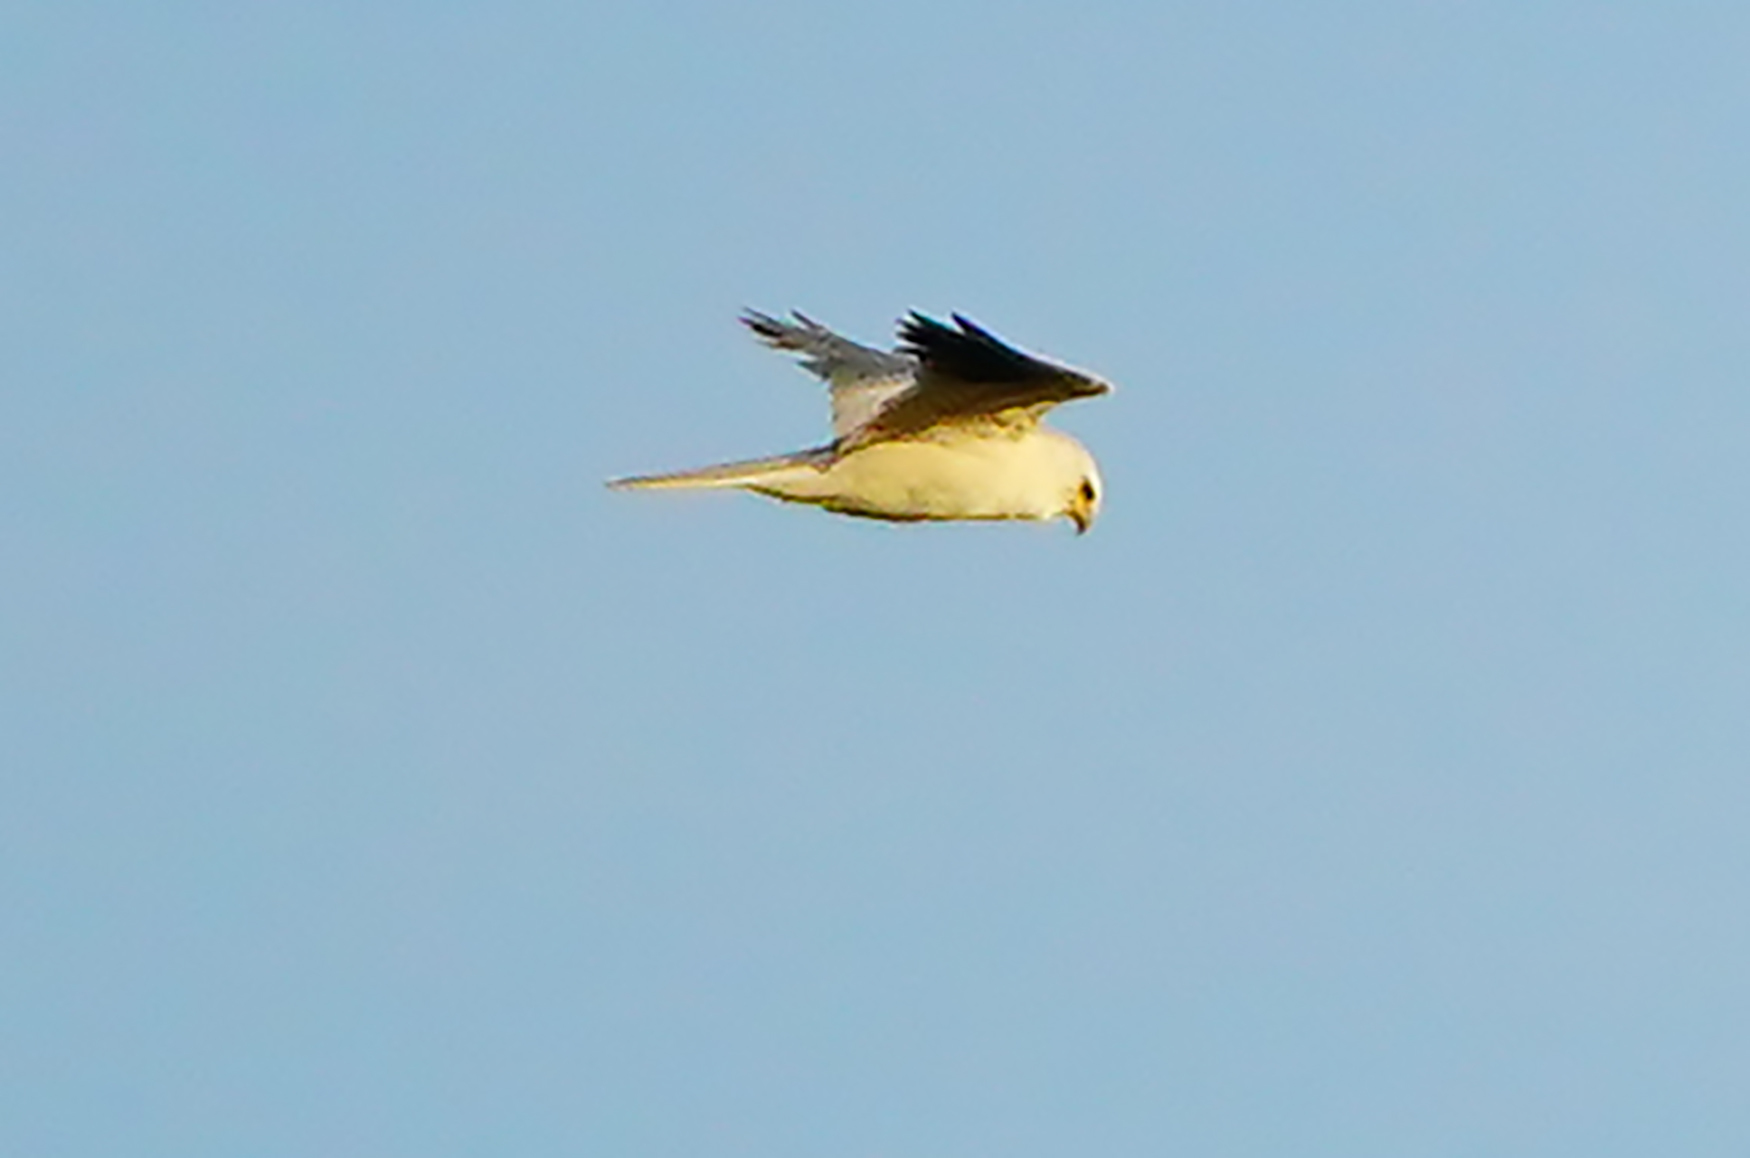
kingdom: Animalia
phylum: Chordata
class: Aves
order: Accipitriformes
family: Accipitridae
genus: Elanus
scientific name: Elanus leucurus
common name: White-tailed kite
